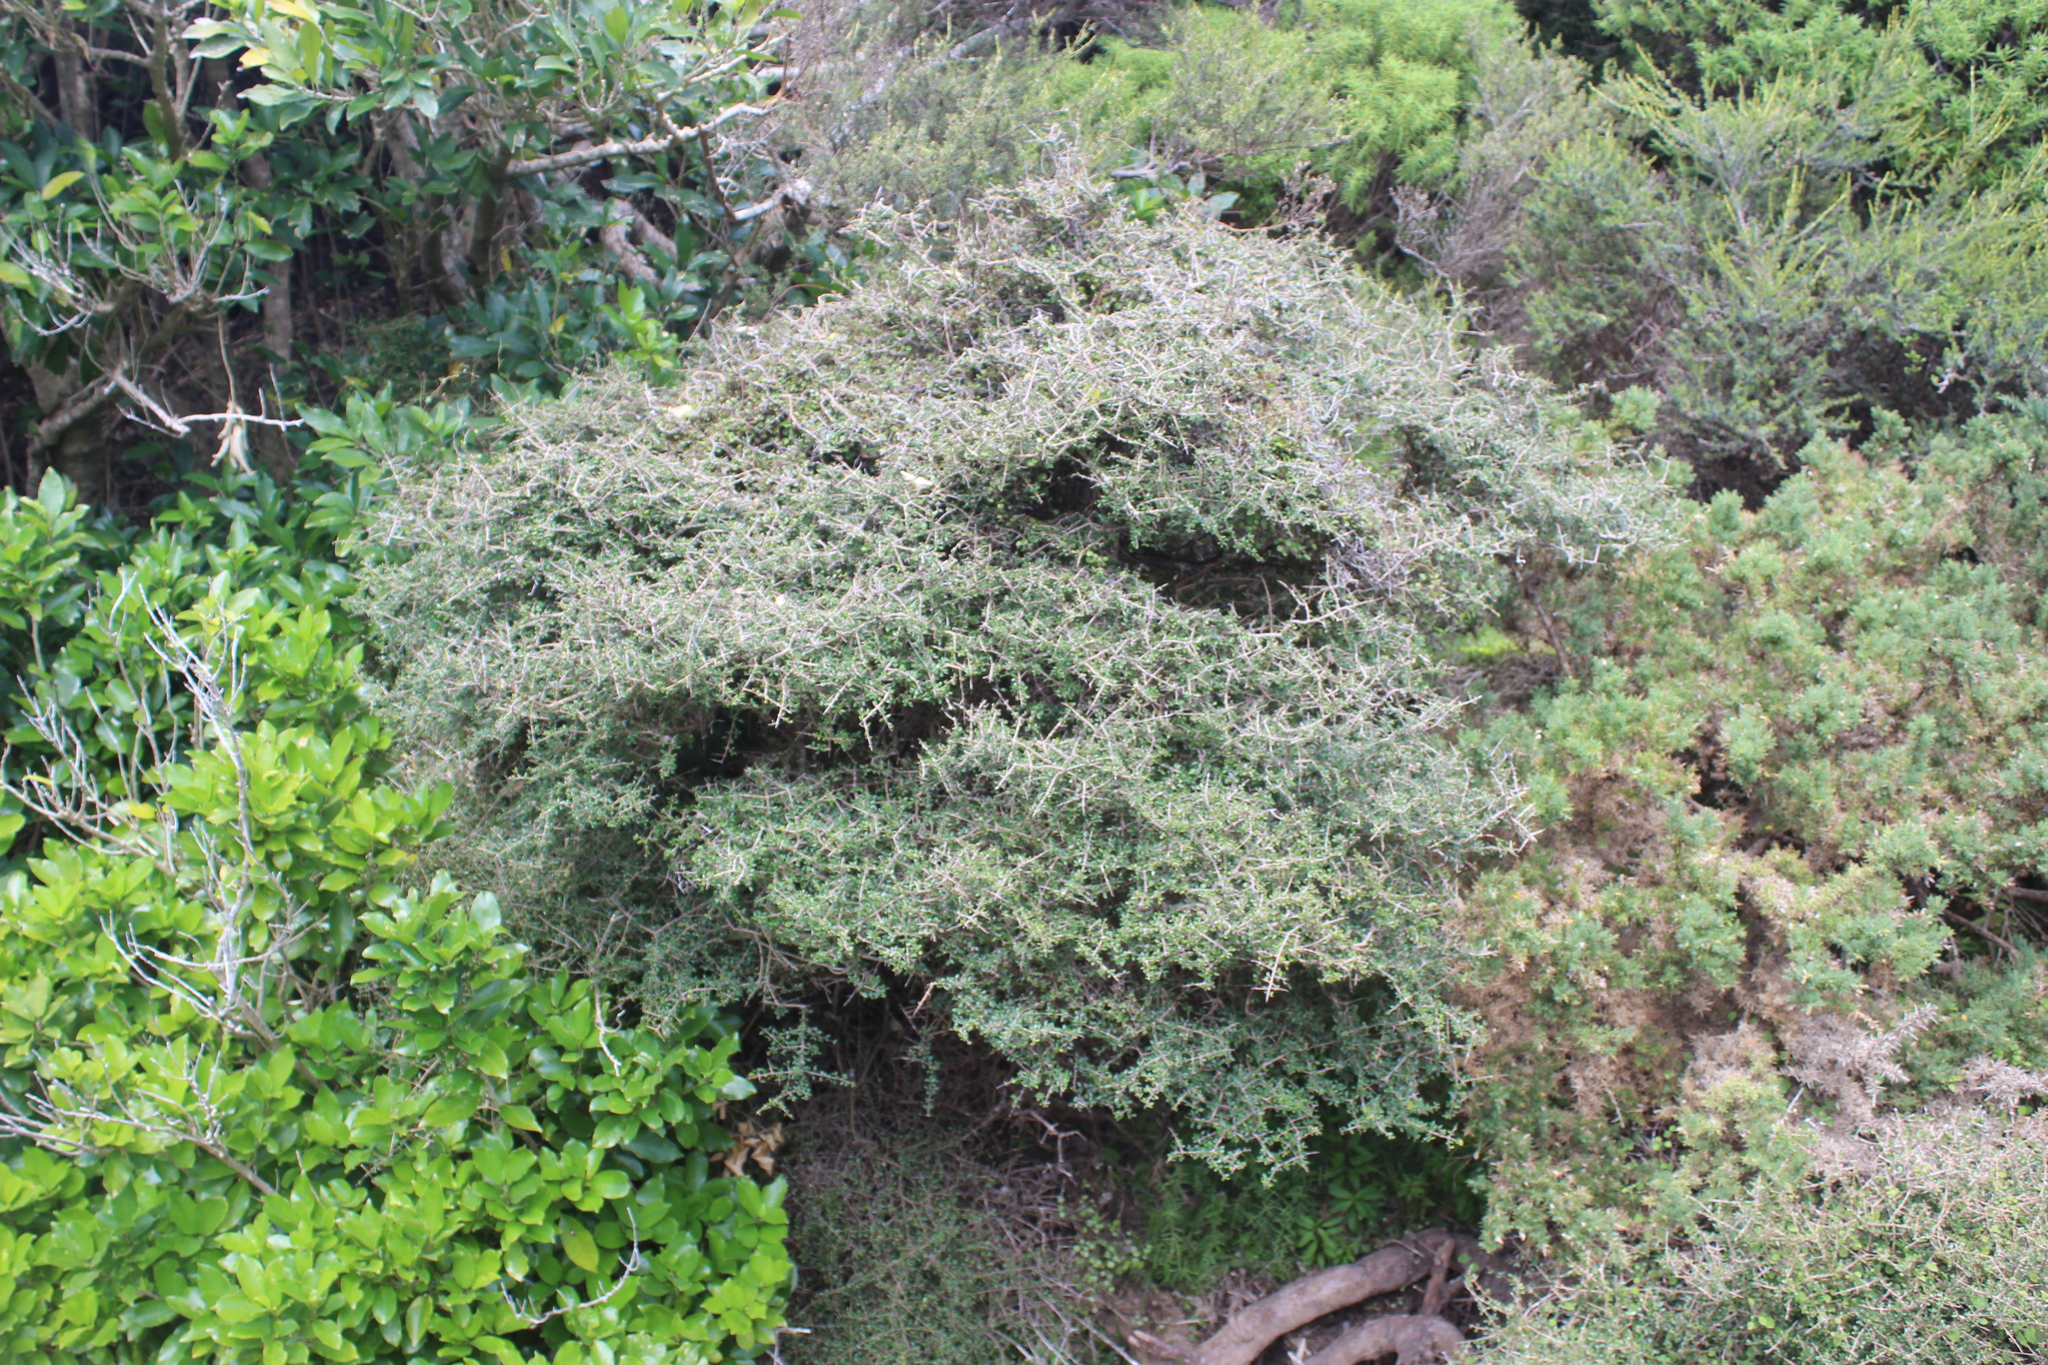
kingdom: Plantae
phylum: Tracheophyta
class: Magnoliopsida
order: Gentianales
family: Rubiaceae
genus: Coprosma
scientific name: Coprosma propinqua
